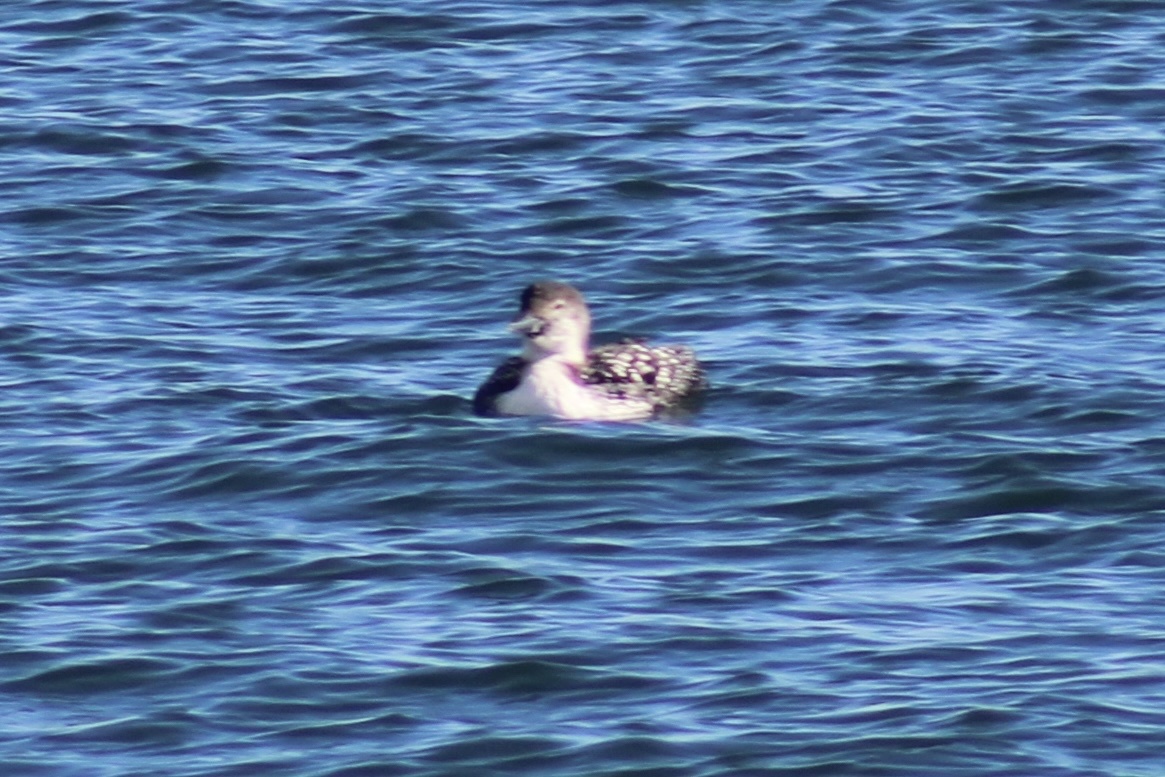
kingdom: Animalia
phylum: Chordata
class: Aves
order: Gaviiformes
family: Gaviidae
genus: Gavia
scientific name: Gavia immer
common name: Common loon
